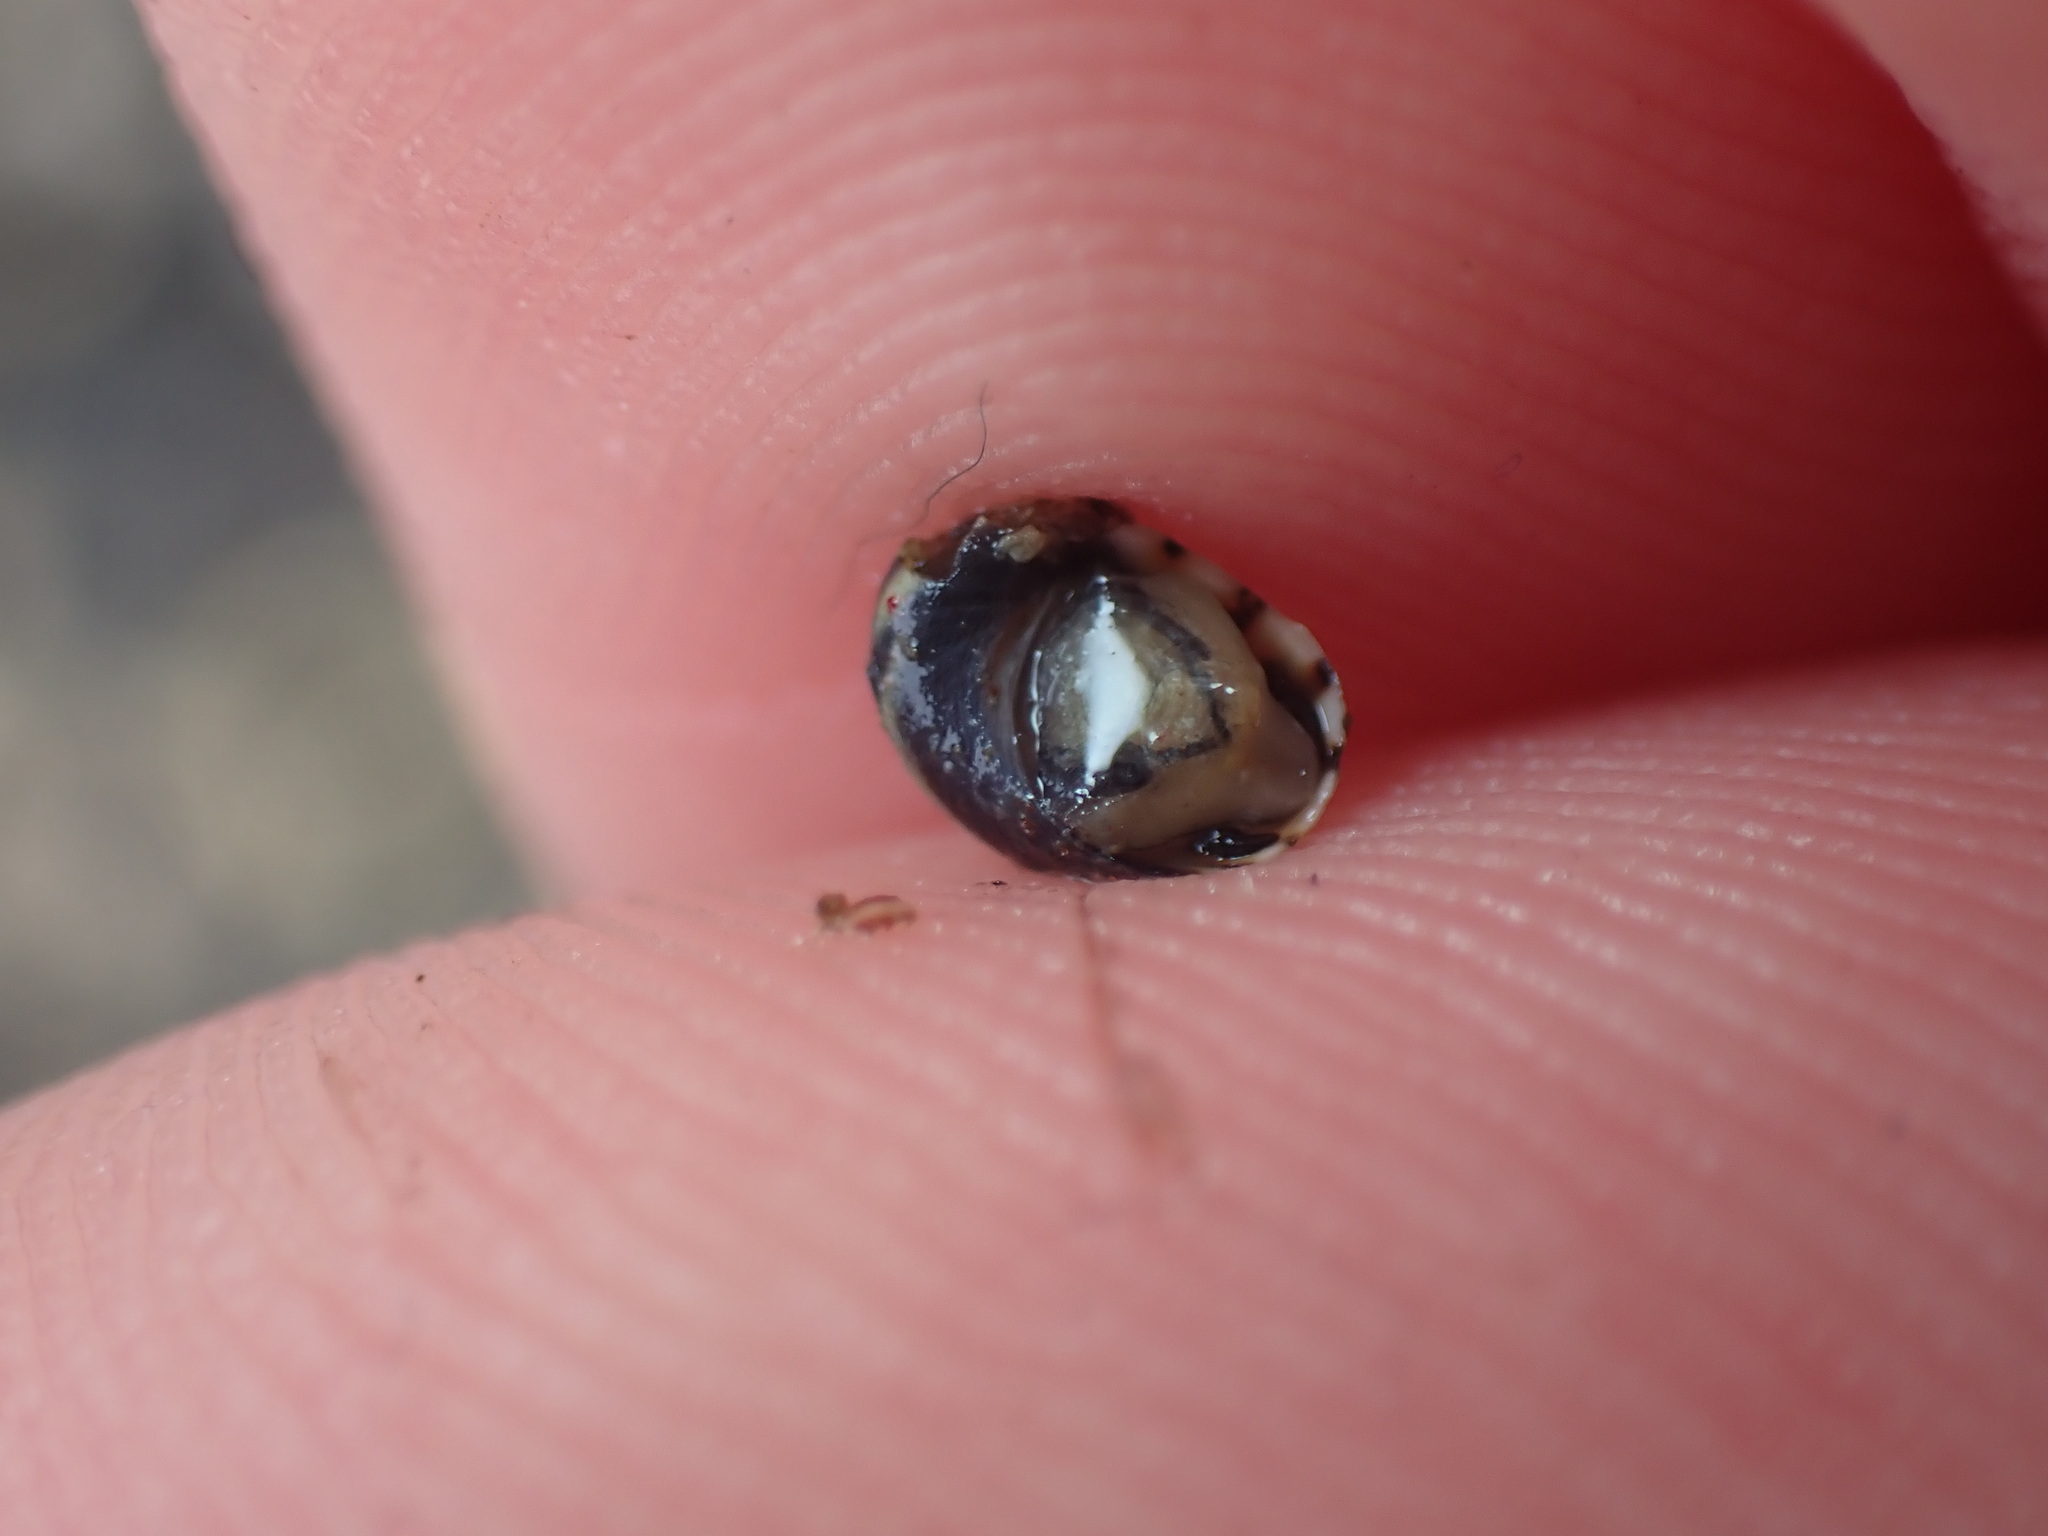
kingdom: Animalia
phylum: Mollusca
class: Gastropoda
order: Trochida
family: Trochidae
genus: Fossarina
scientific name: Fossarina rimata
